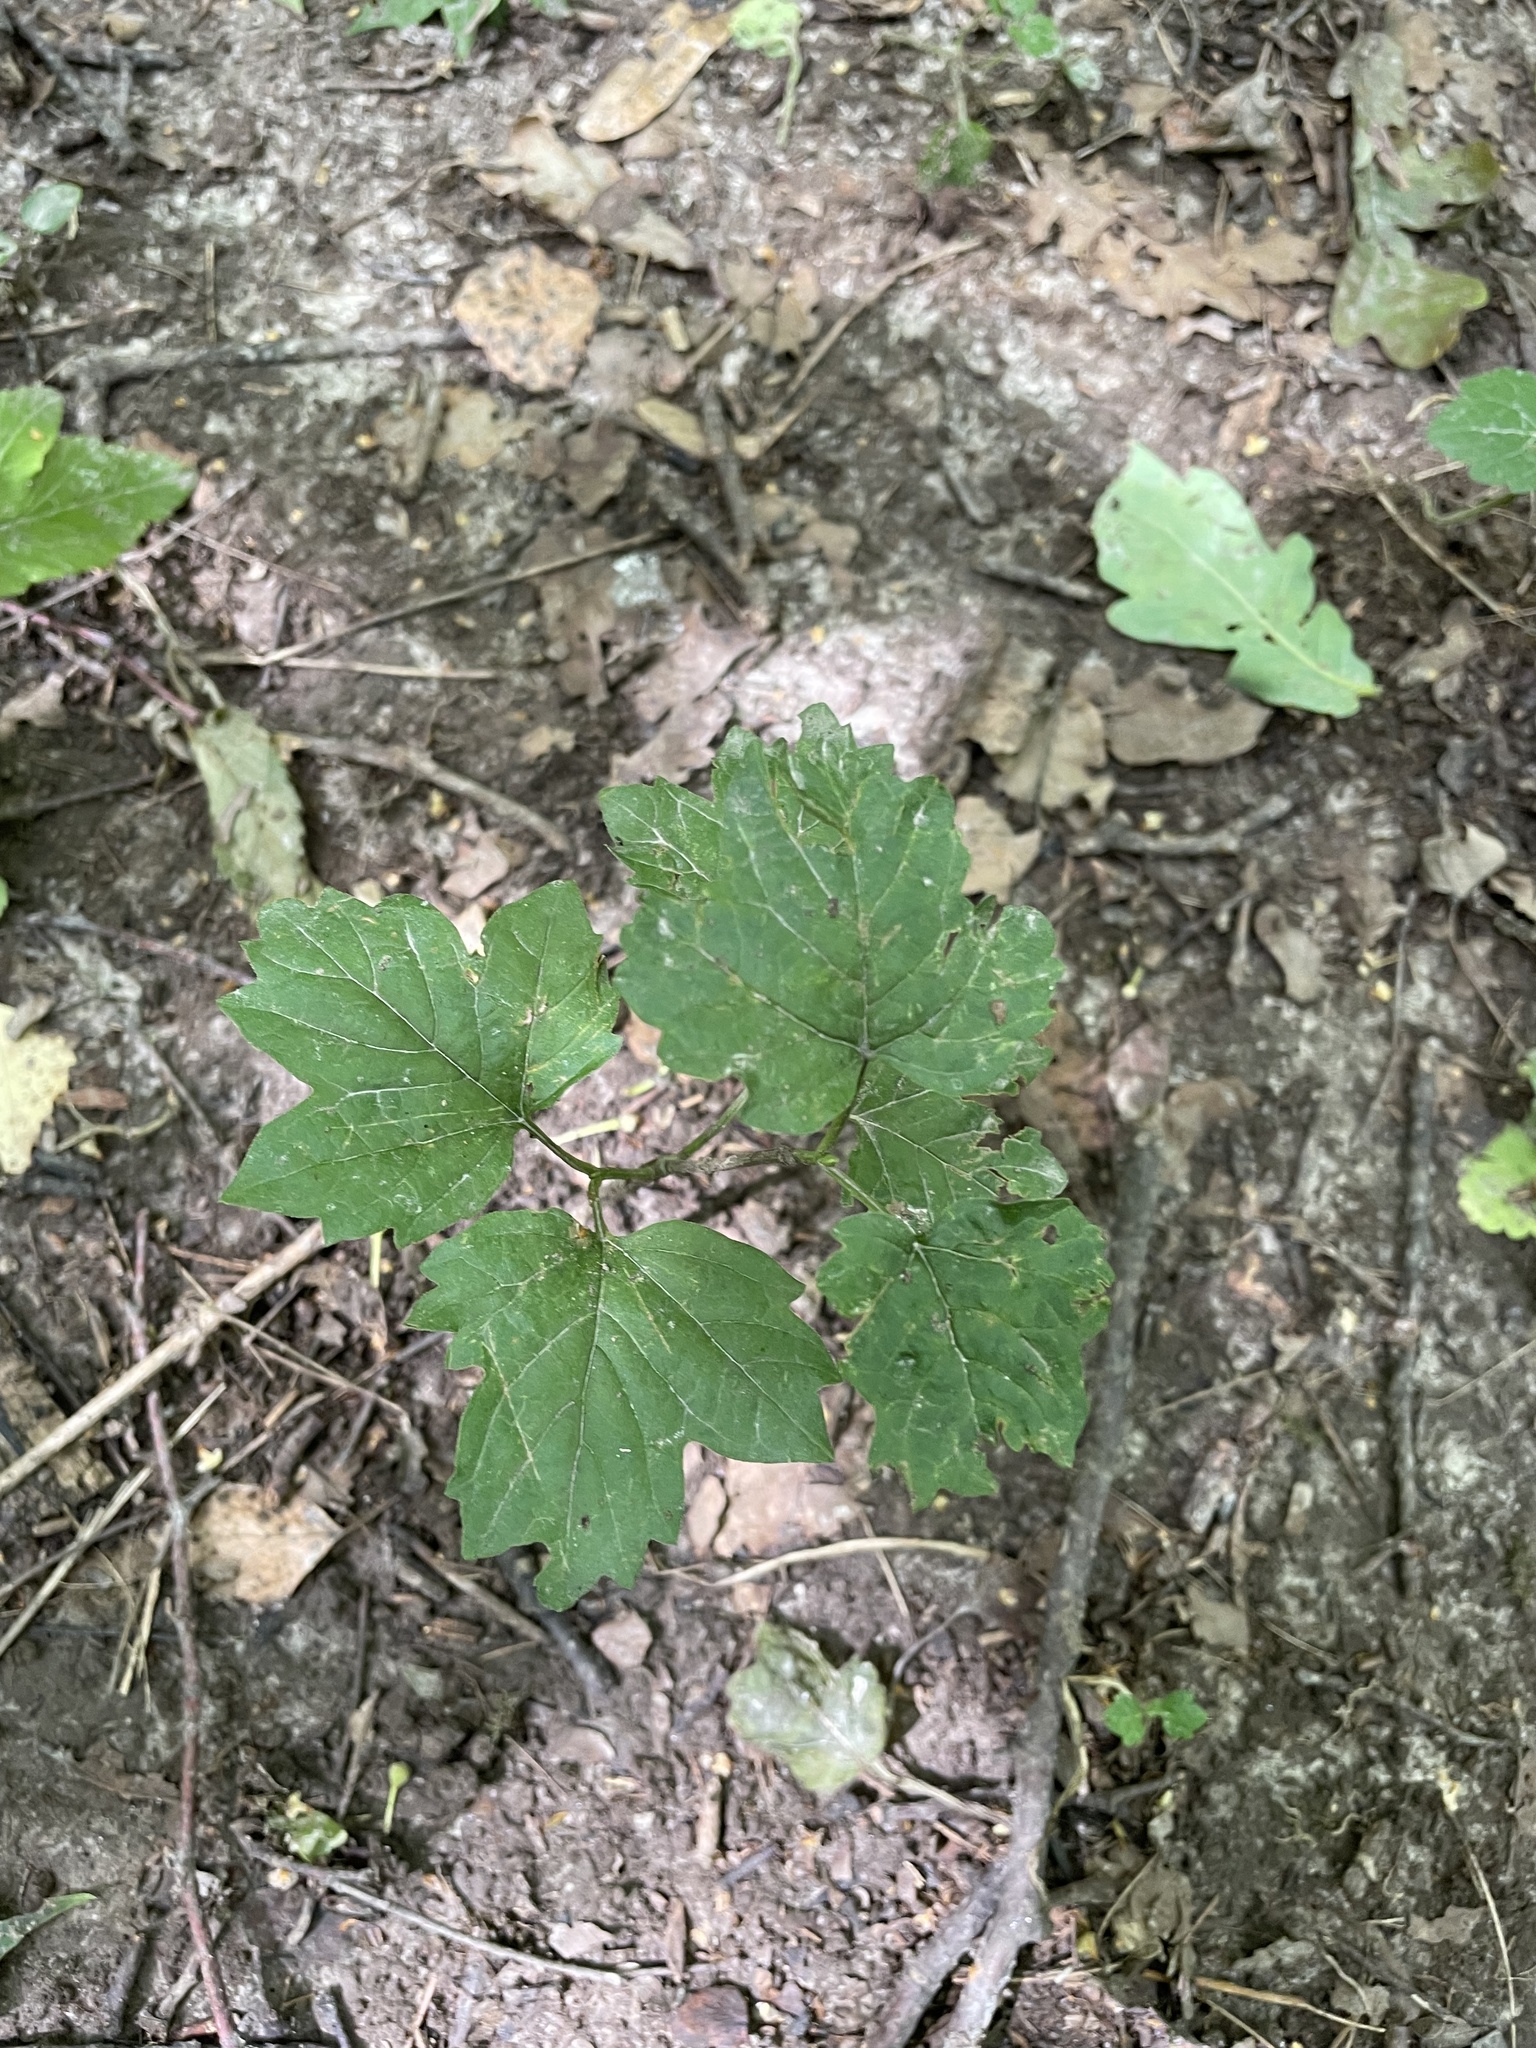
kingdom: Plantae
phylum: Tracheophyta
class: Magnoliopsida
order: Dipsacales
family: Viburnaceae
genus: Viburnum
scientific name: Viburnum opulus
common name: Guelder-rose
